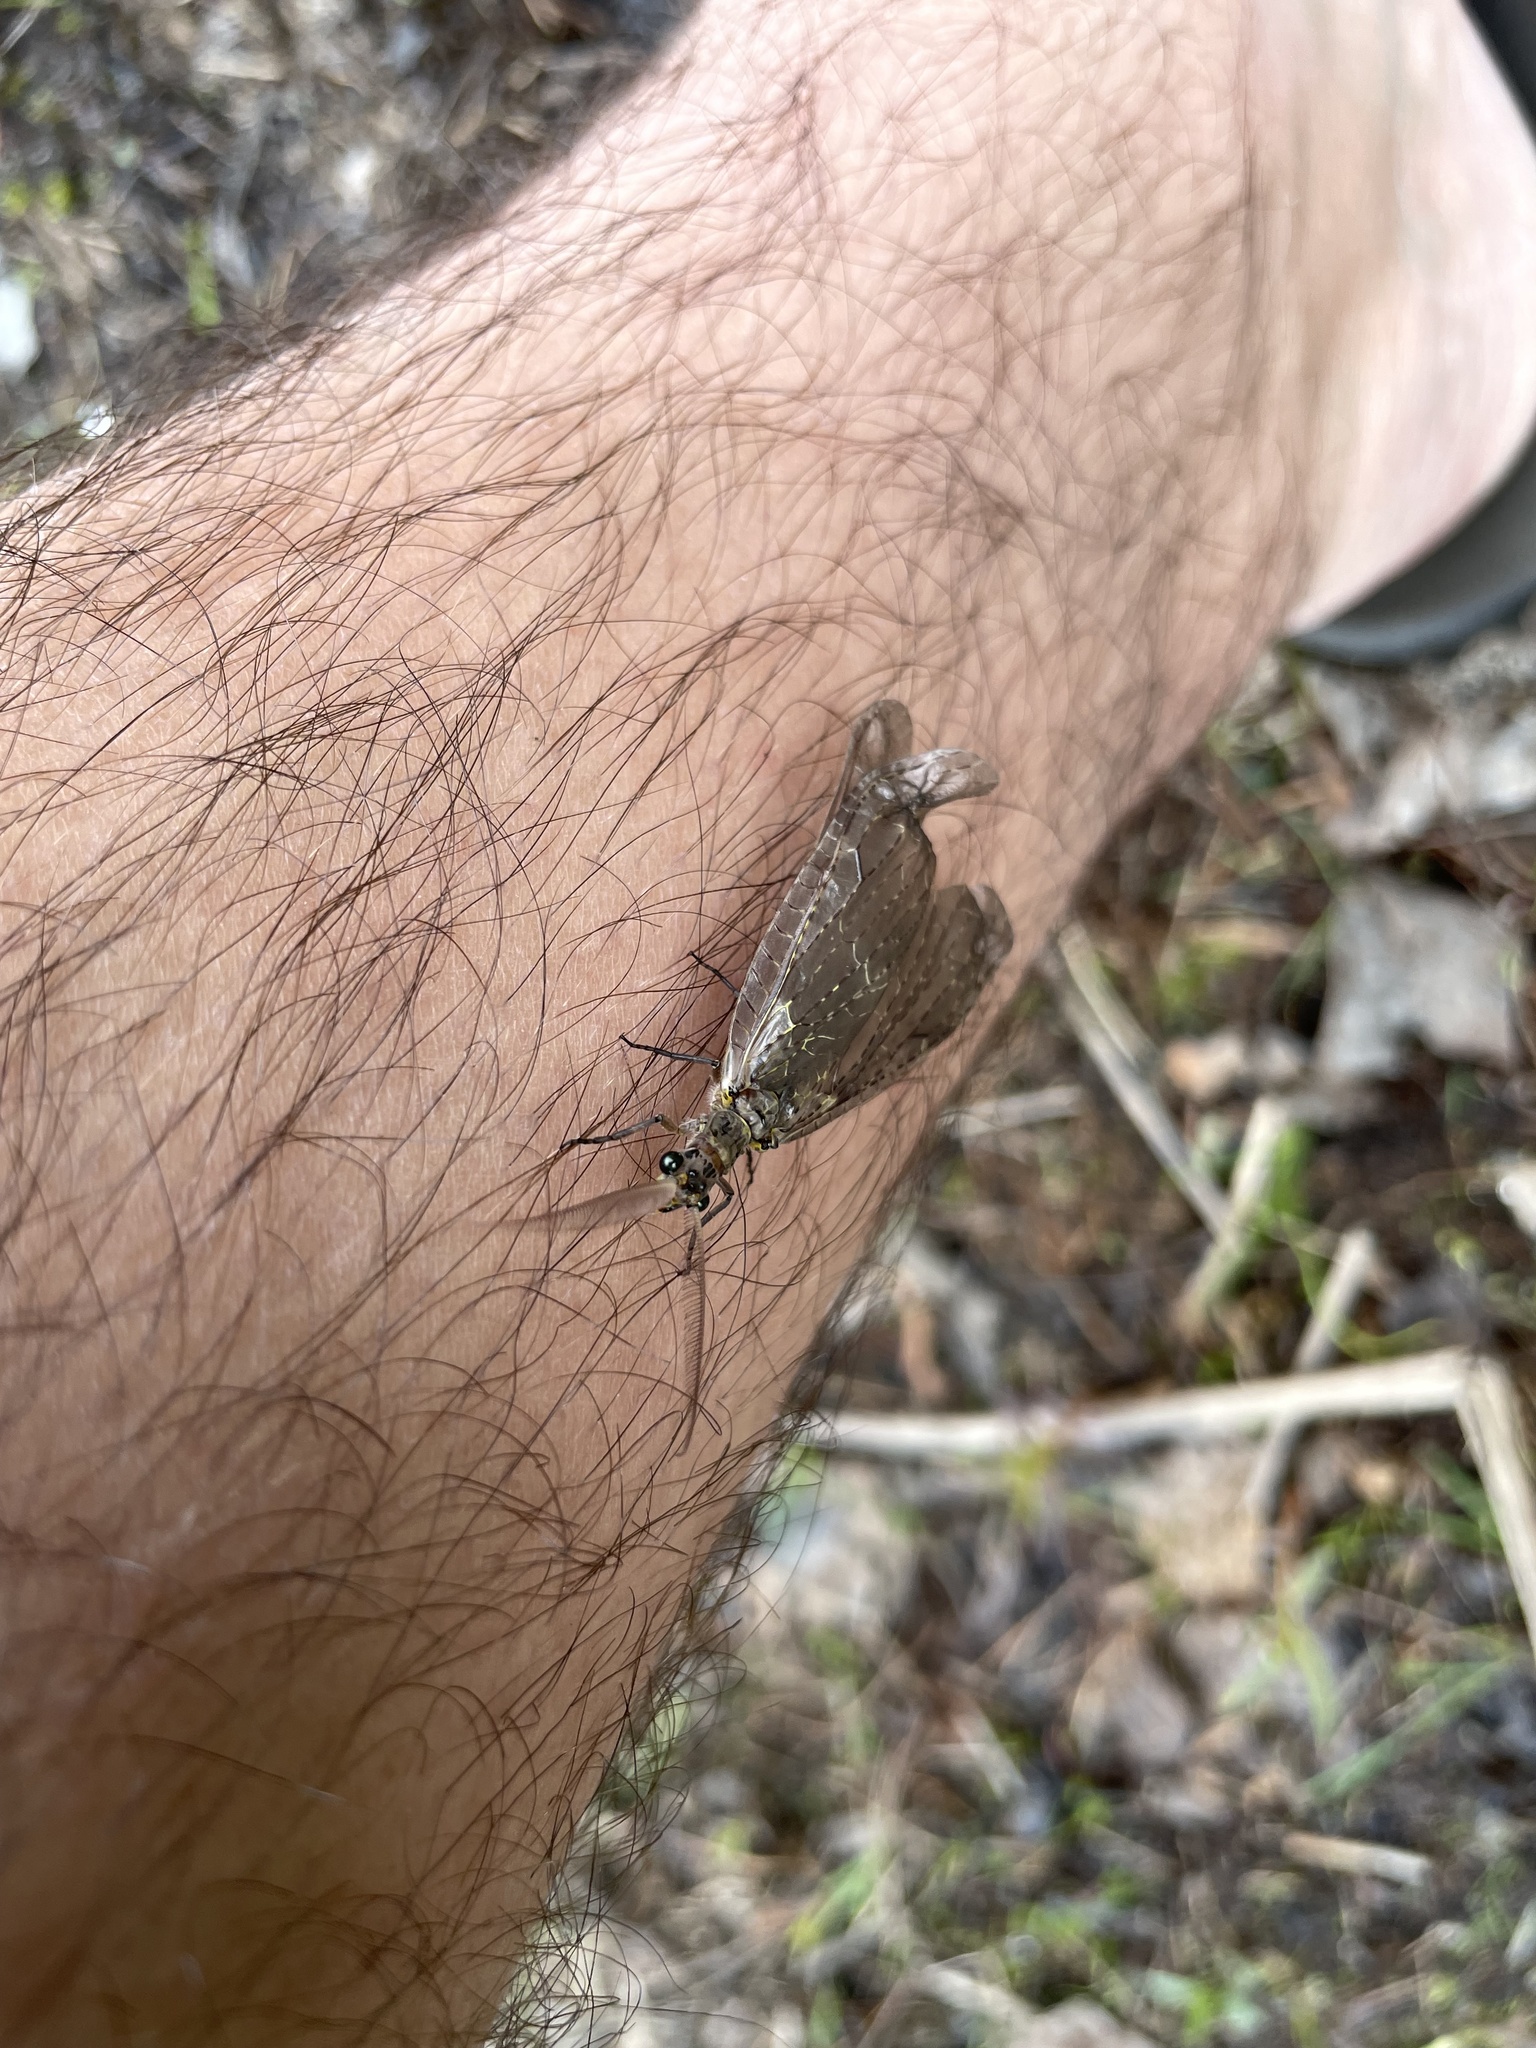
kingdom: Animalia
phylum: Arthropoda
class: Insecta
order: Megaloptera
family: Corydalidae
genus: Chauliodes
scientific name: Chauliodes rastricornis
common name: Spring fishfly
